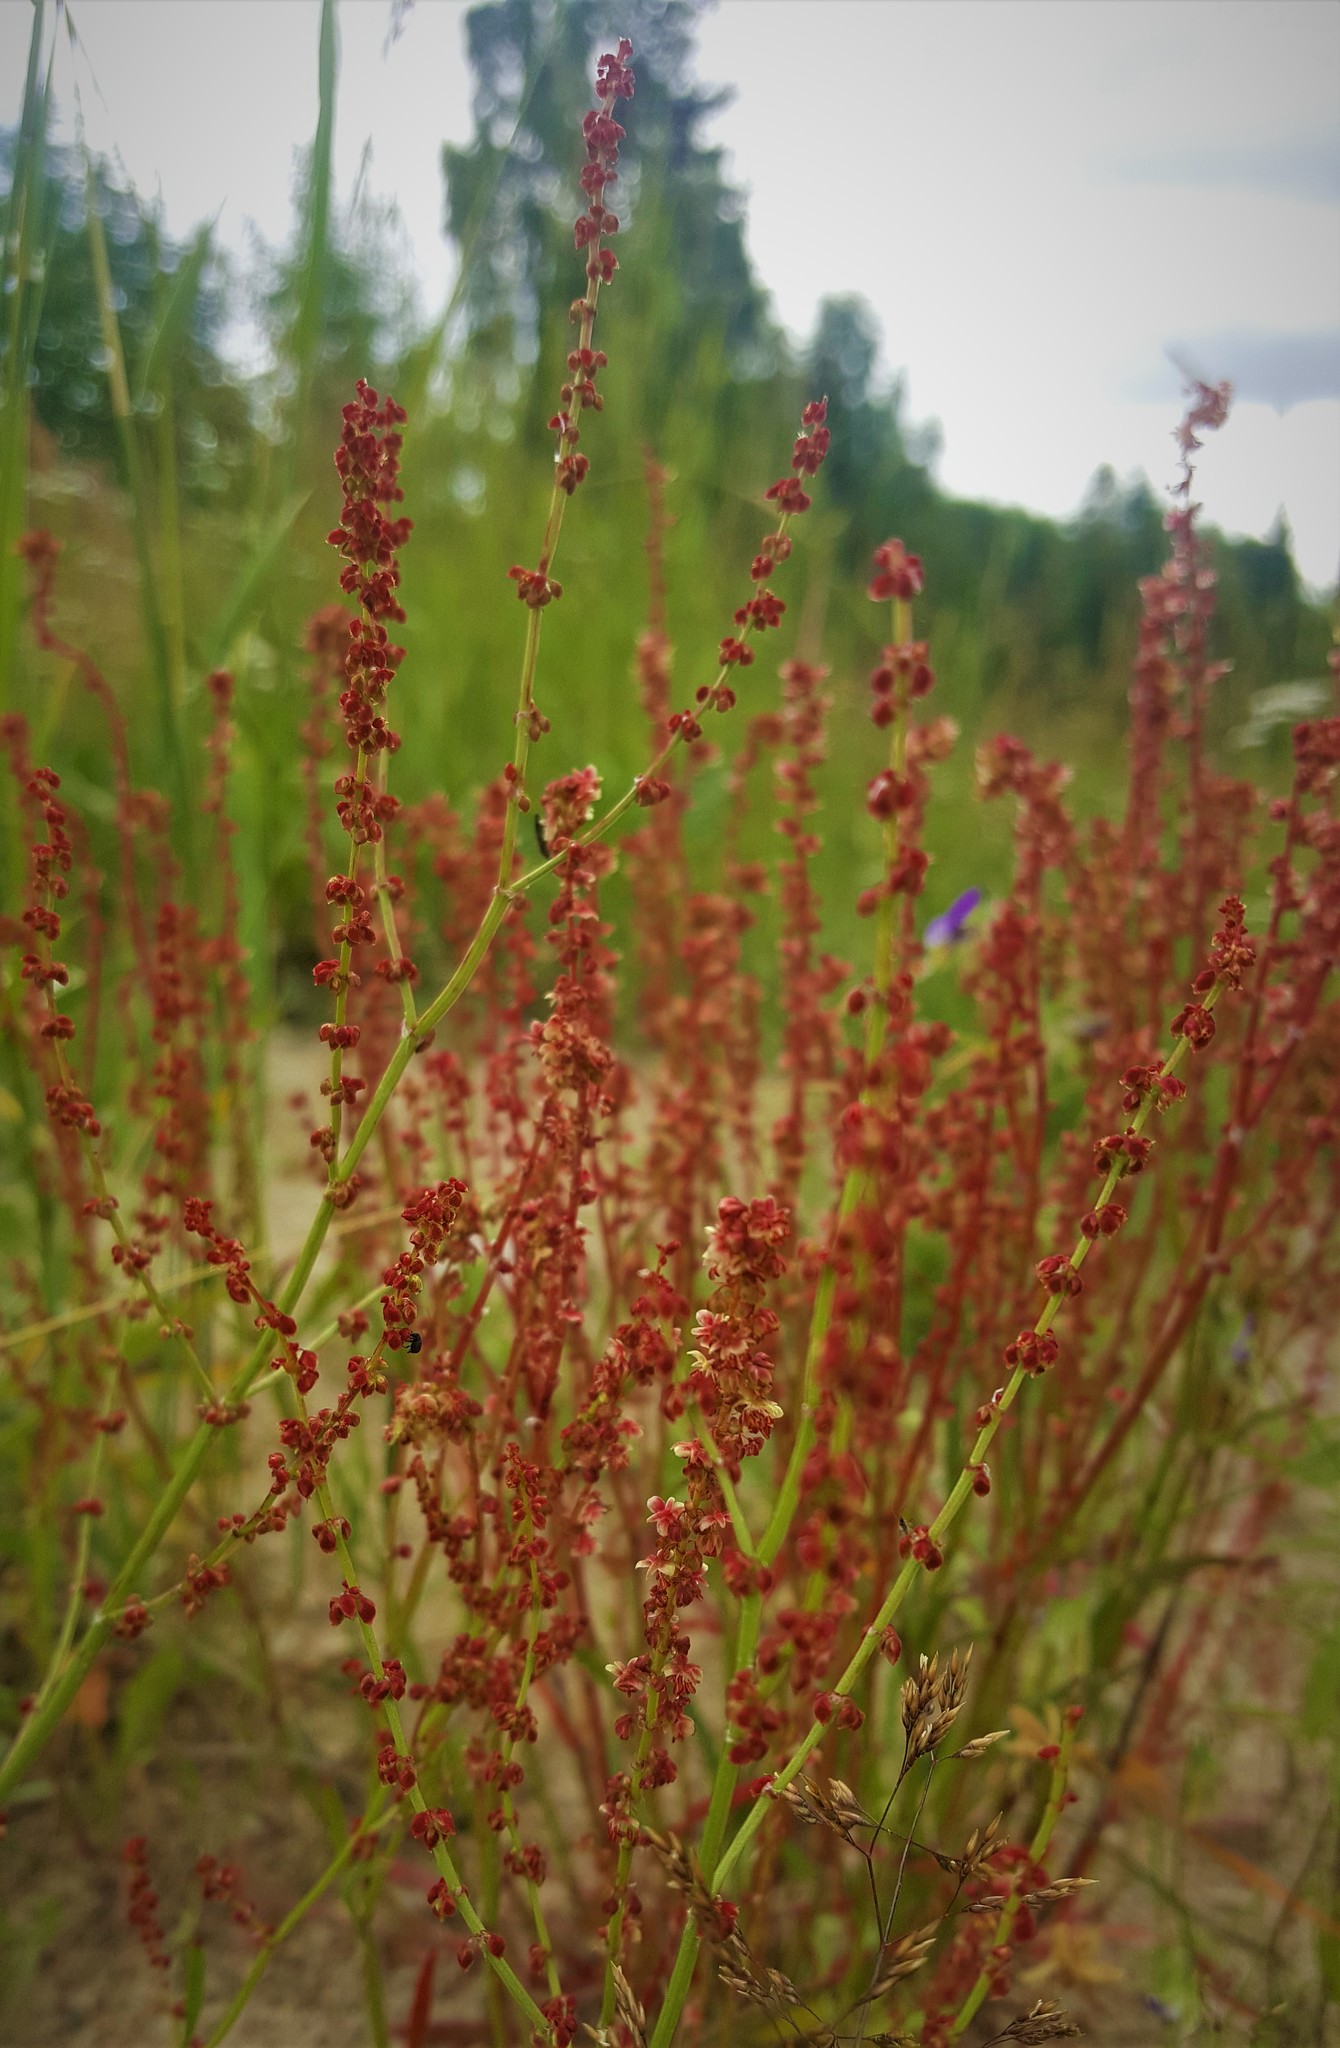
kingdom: Plantae
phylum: Tracheophyta
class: Magnoliopsida
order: Caryophyllales
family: Polygonaceae
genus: Rumex
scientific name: Rumex acetosella
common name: Common sheep sorrel
